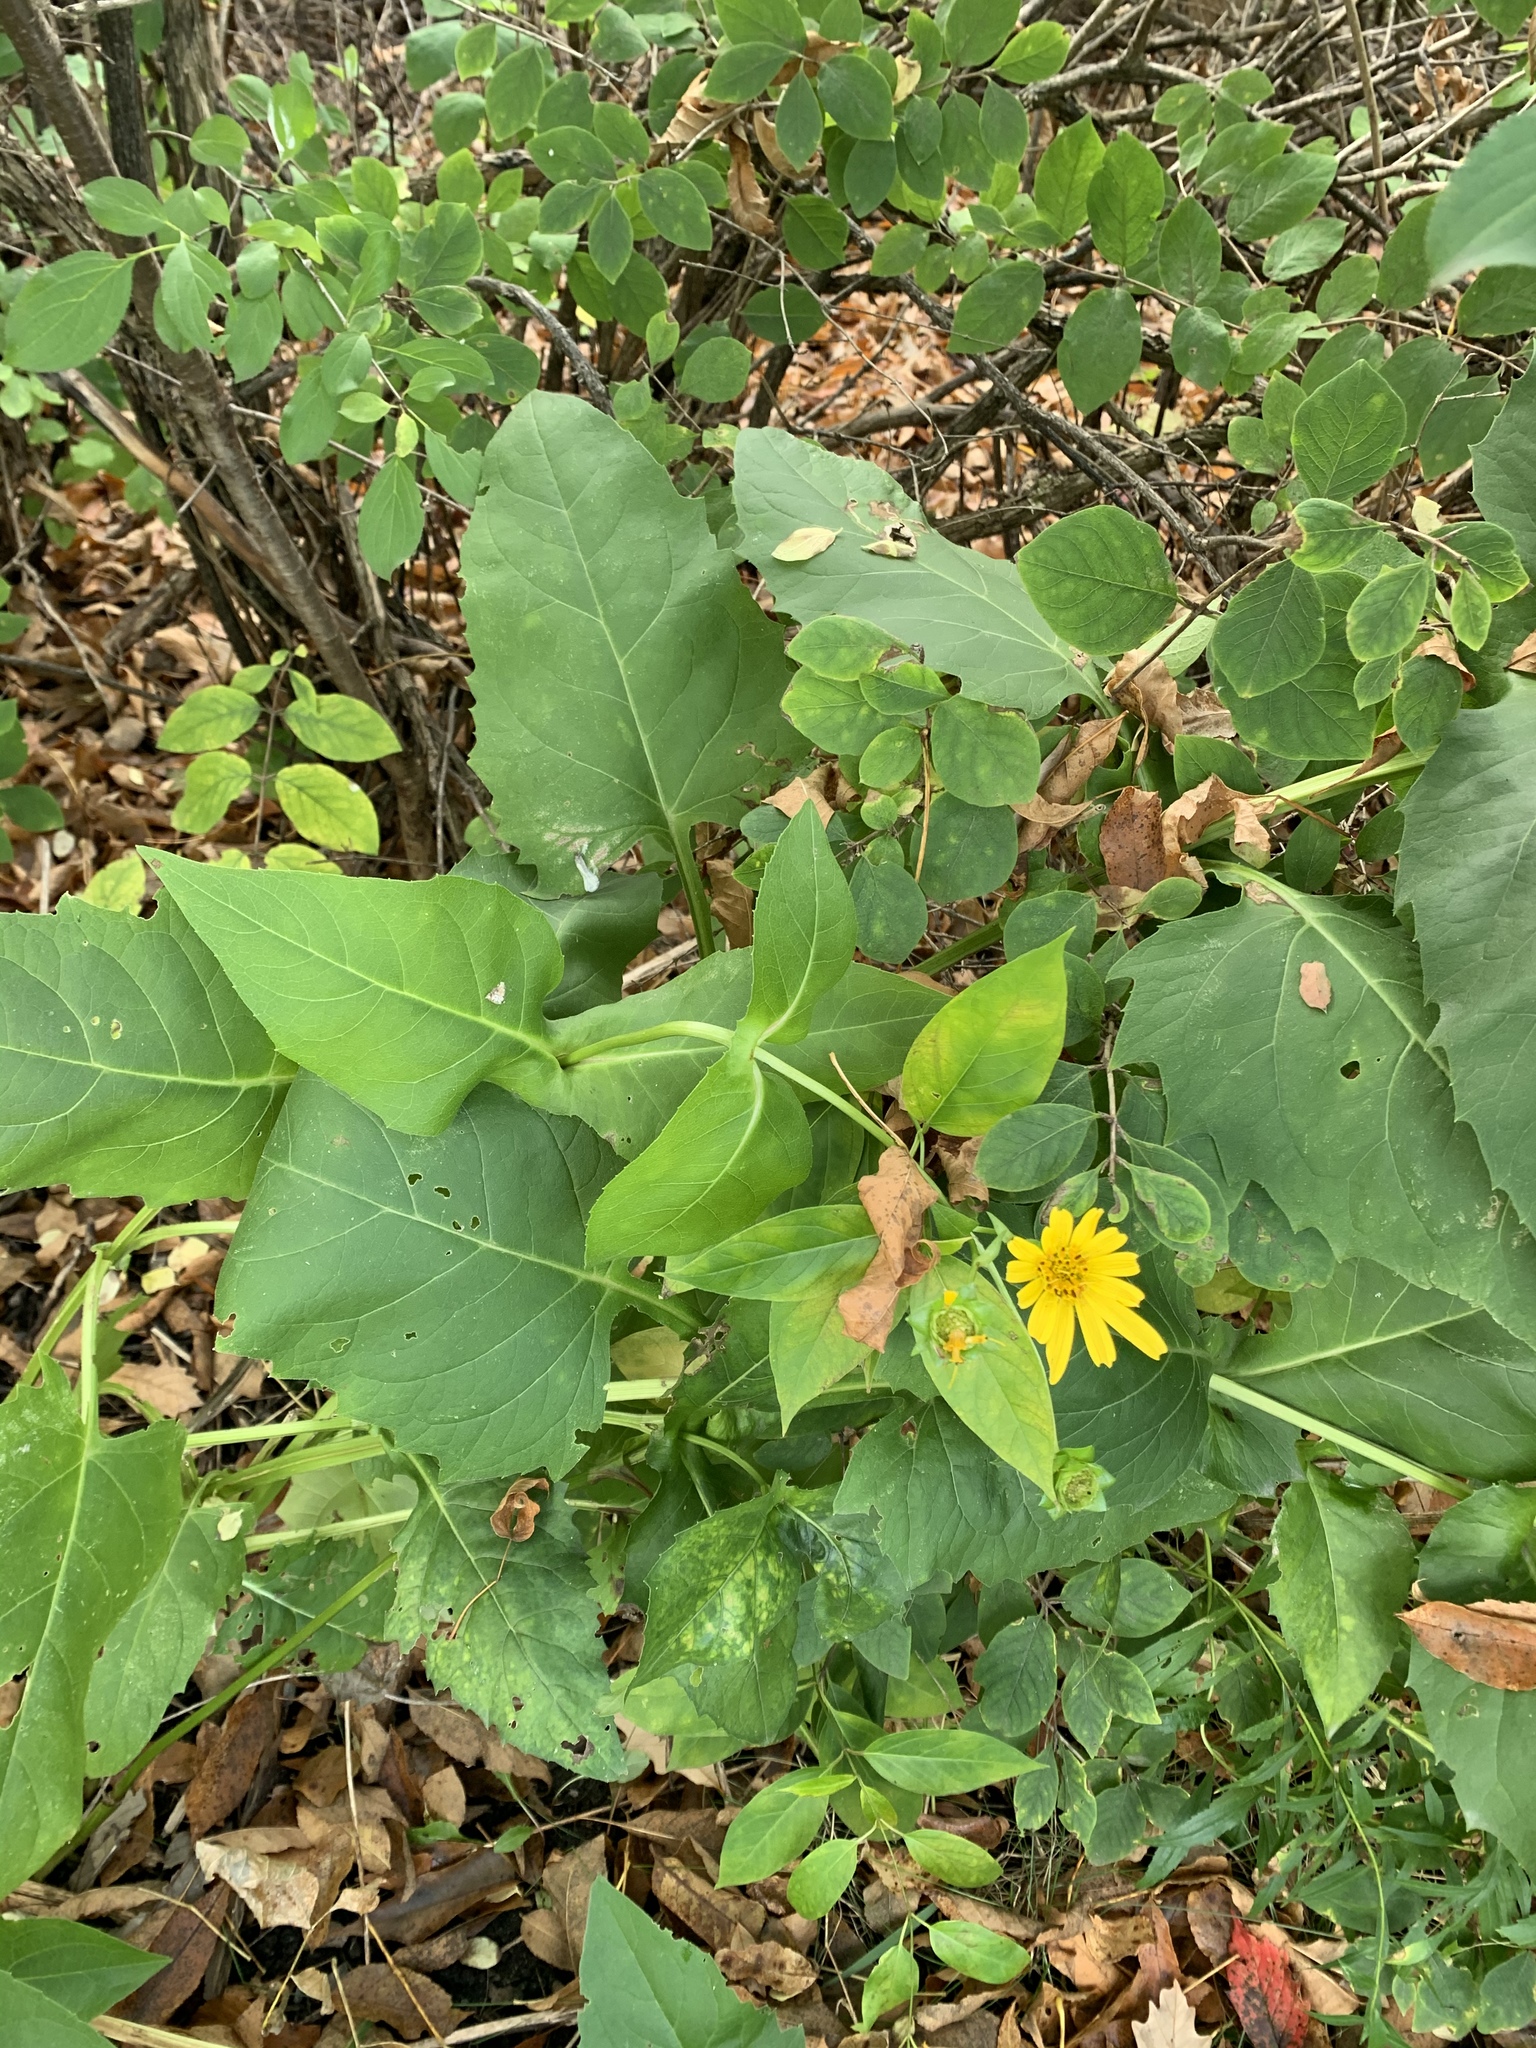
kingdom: Plantae
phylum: Tracheophyta
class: Magnoliopsida
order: Asterales
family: Asteraceae
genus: Silphium
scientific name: Silphium perfoliatum
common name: Cup-plant
